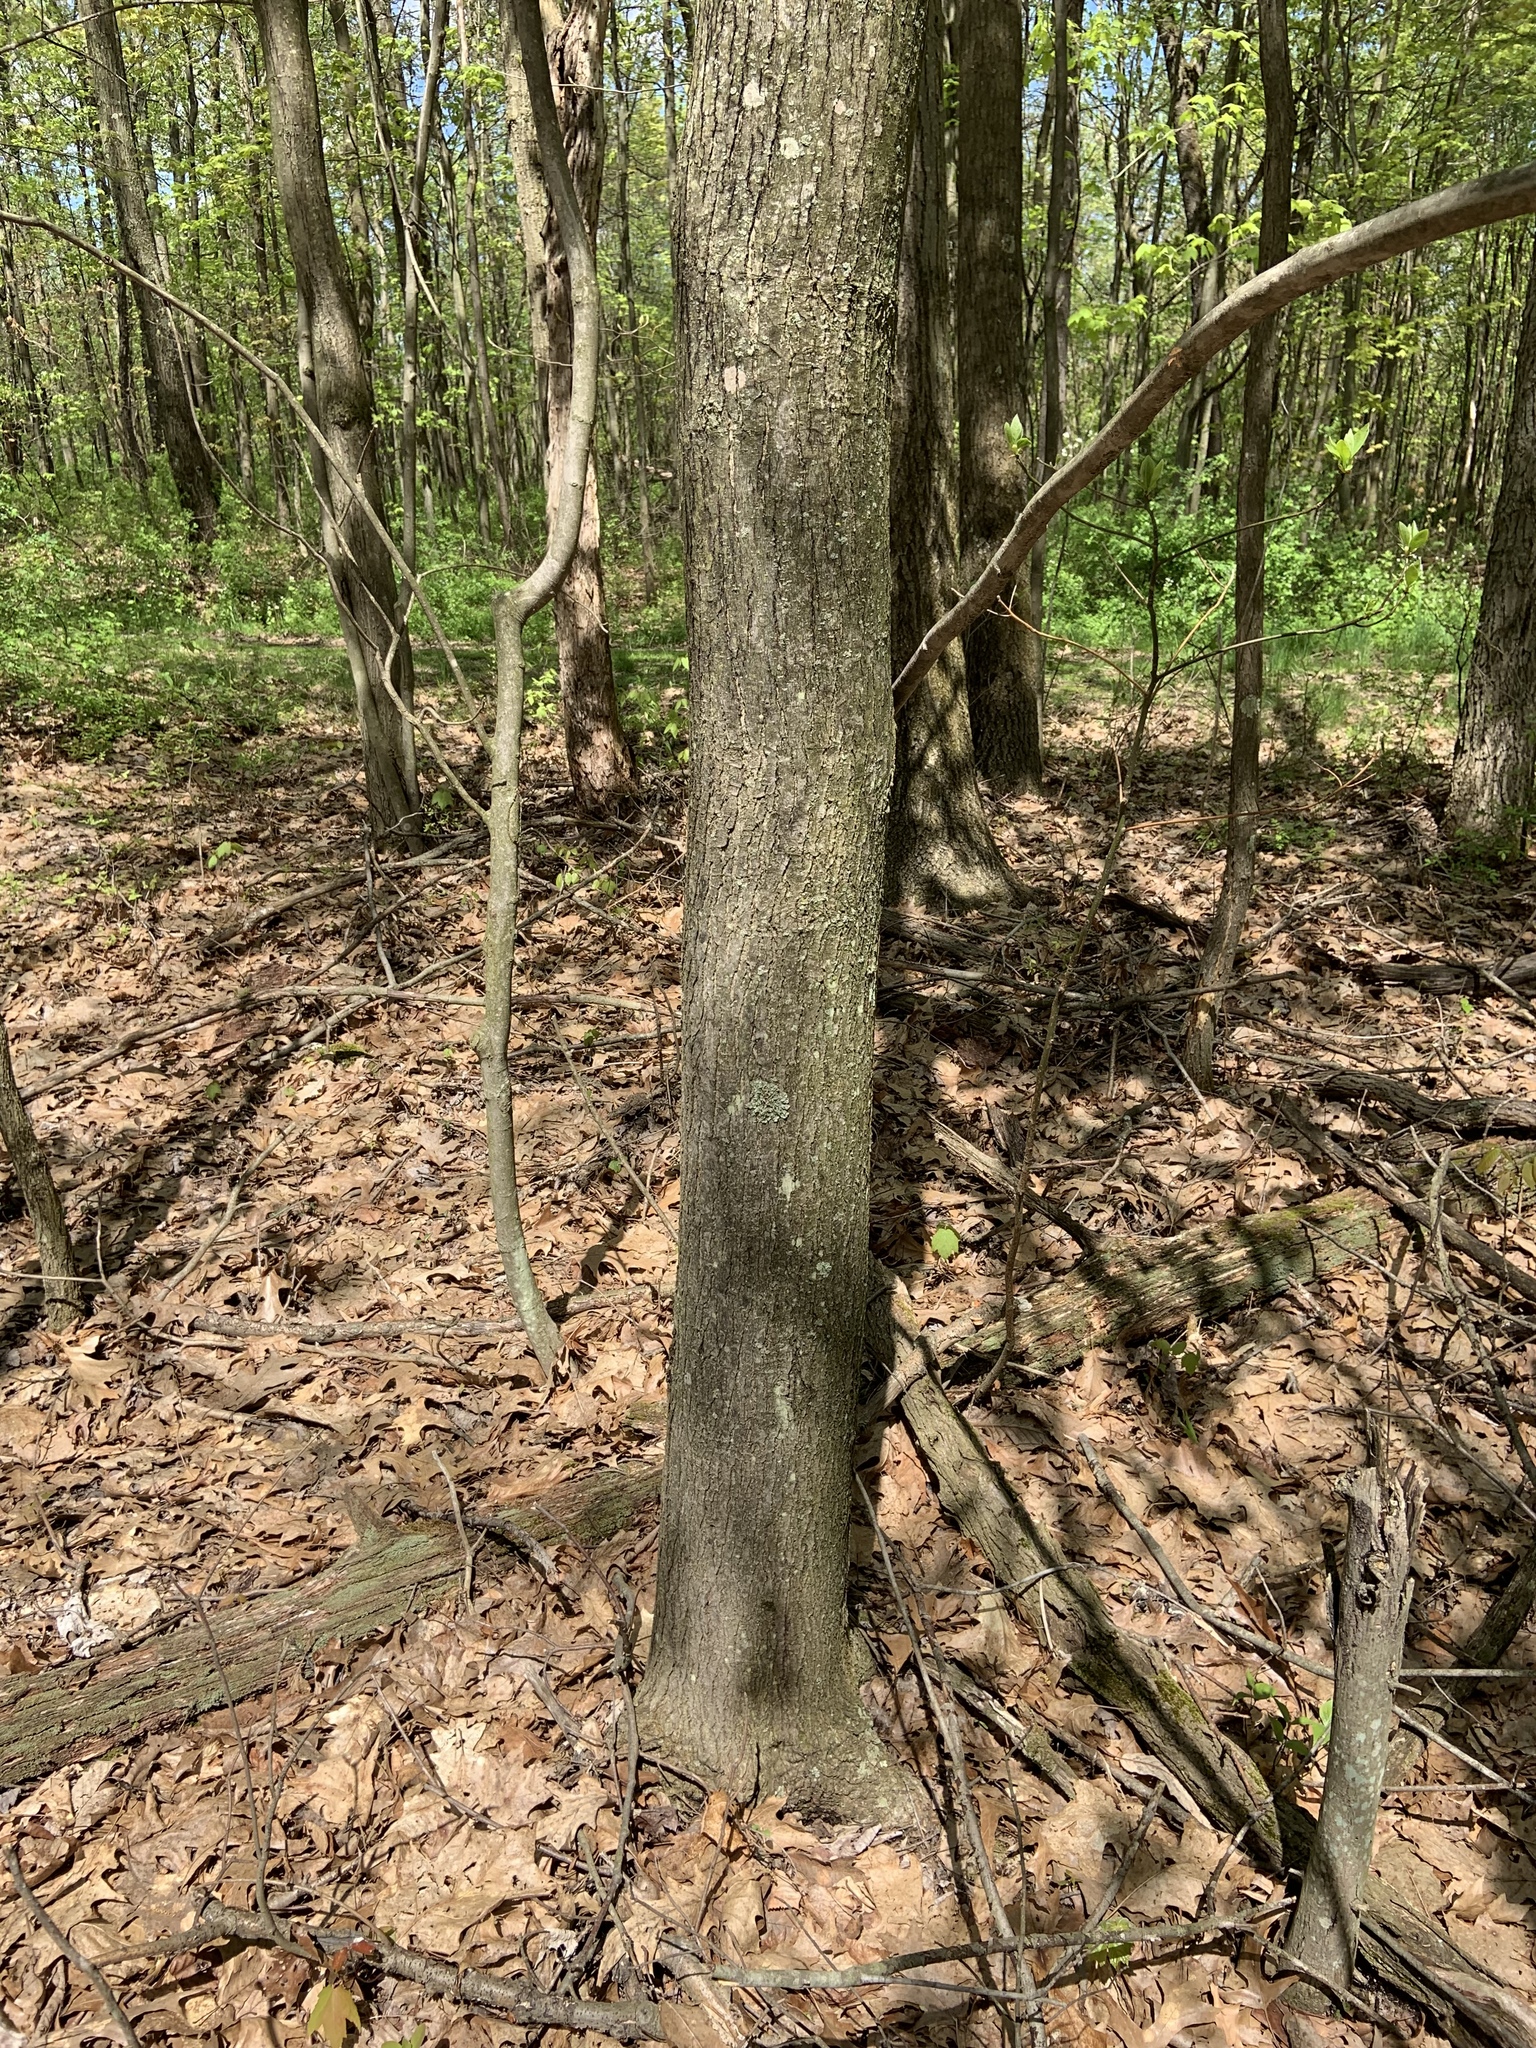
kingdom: Plantae
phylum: Tracheophyta
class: Magnoliopsida
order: Sapindales
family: Sapindaceae
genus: Acer
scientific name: Acer rubrum
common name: Red maple
